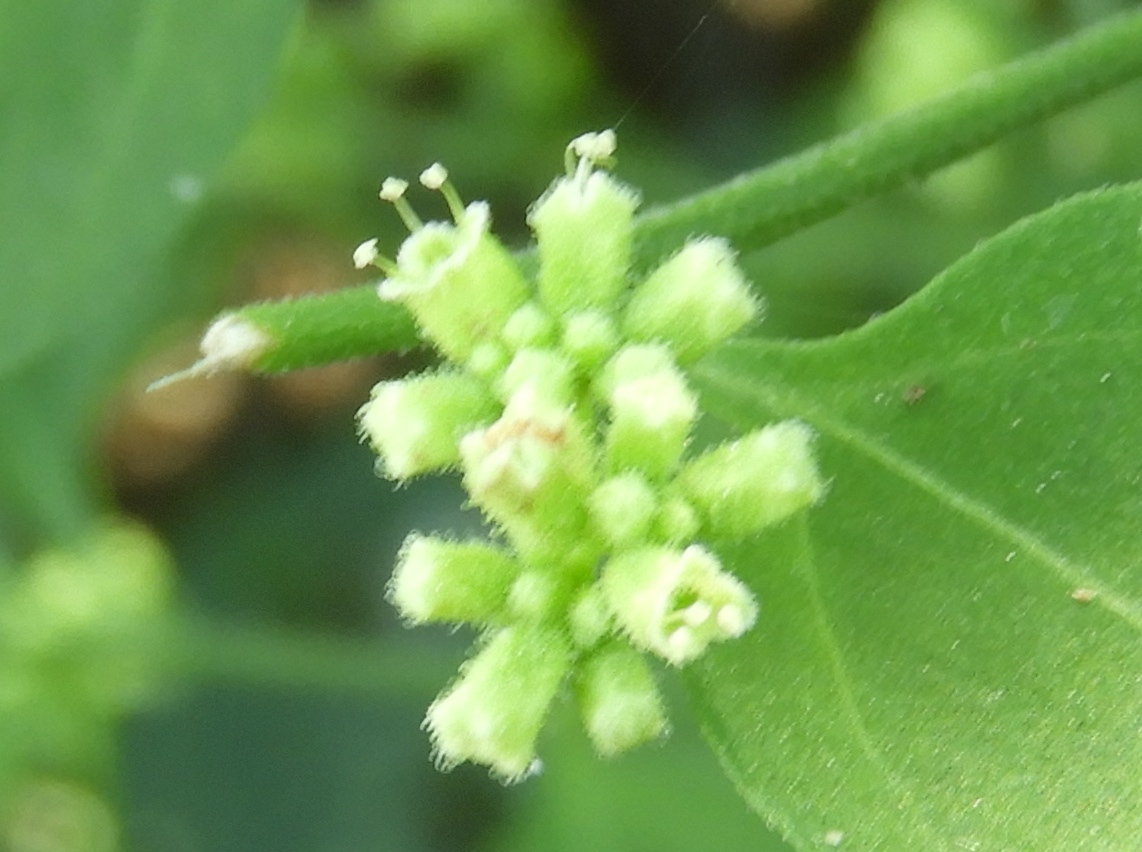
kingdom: Plantae
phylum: Tracheophyta
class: Magnoliopsida
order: Caryophyllales
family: Nyctaginaceae
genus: Commicarpus
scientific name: Commicarpus scandens
